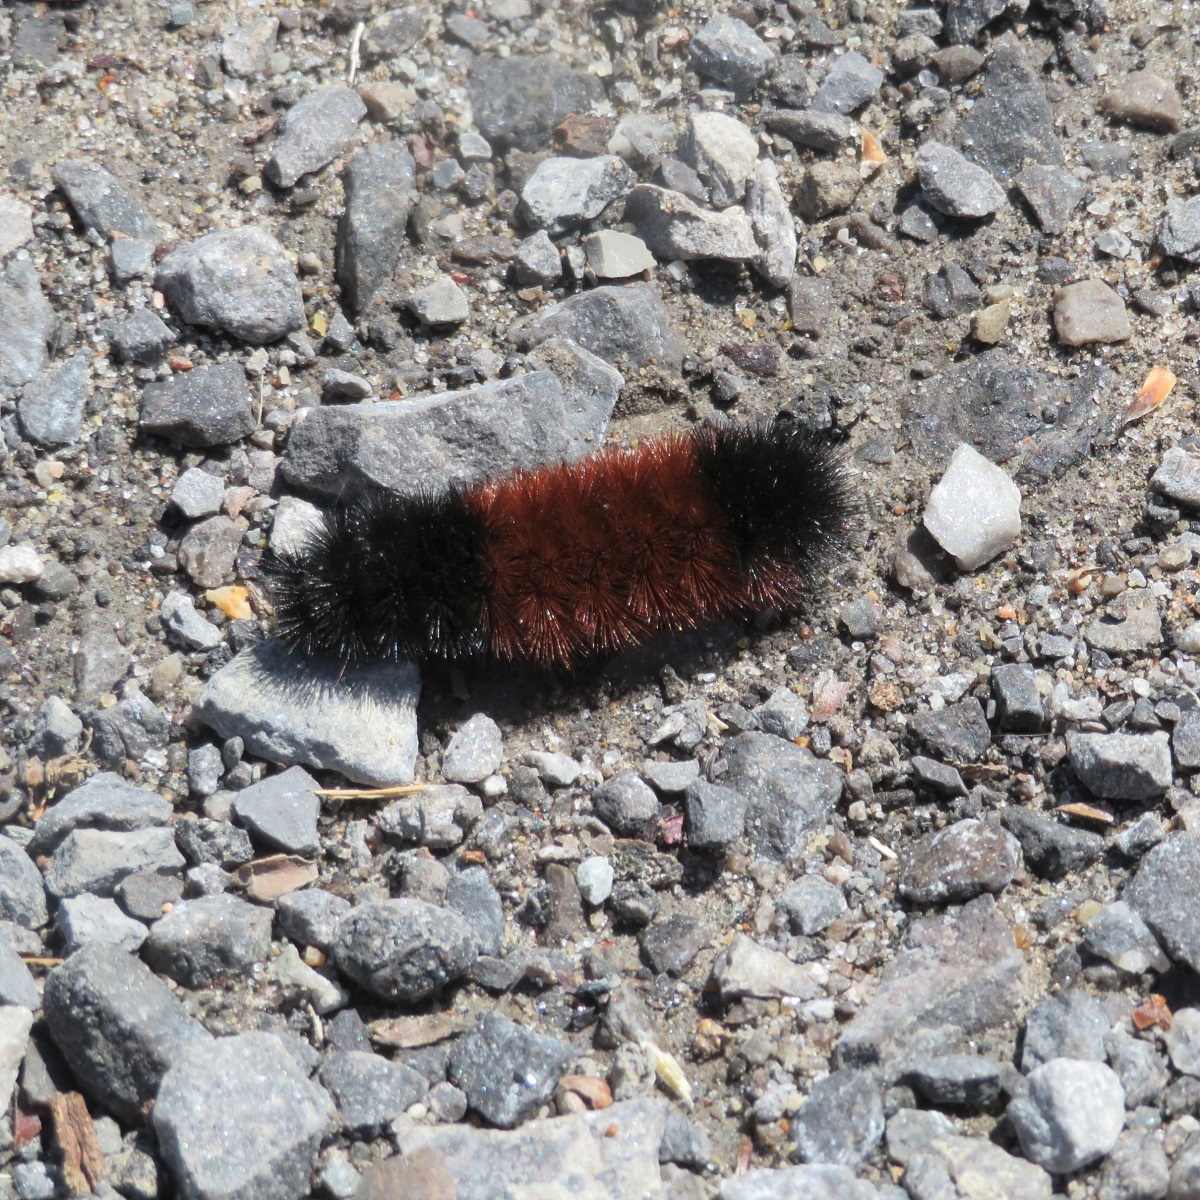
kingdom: Animalia
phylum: Arthropoda
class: Insecta
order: Lepidoptera
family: Erebidae
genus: Pyrrharctia
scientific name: Pyrrharctia isabella
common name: Isabella tiger moth
